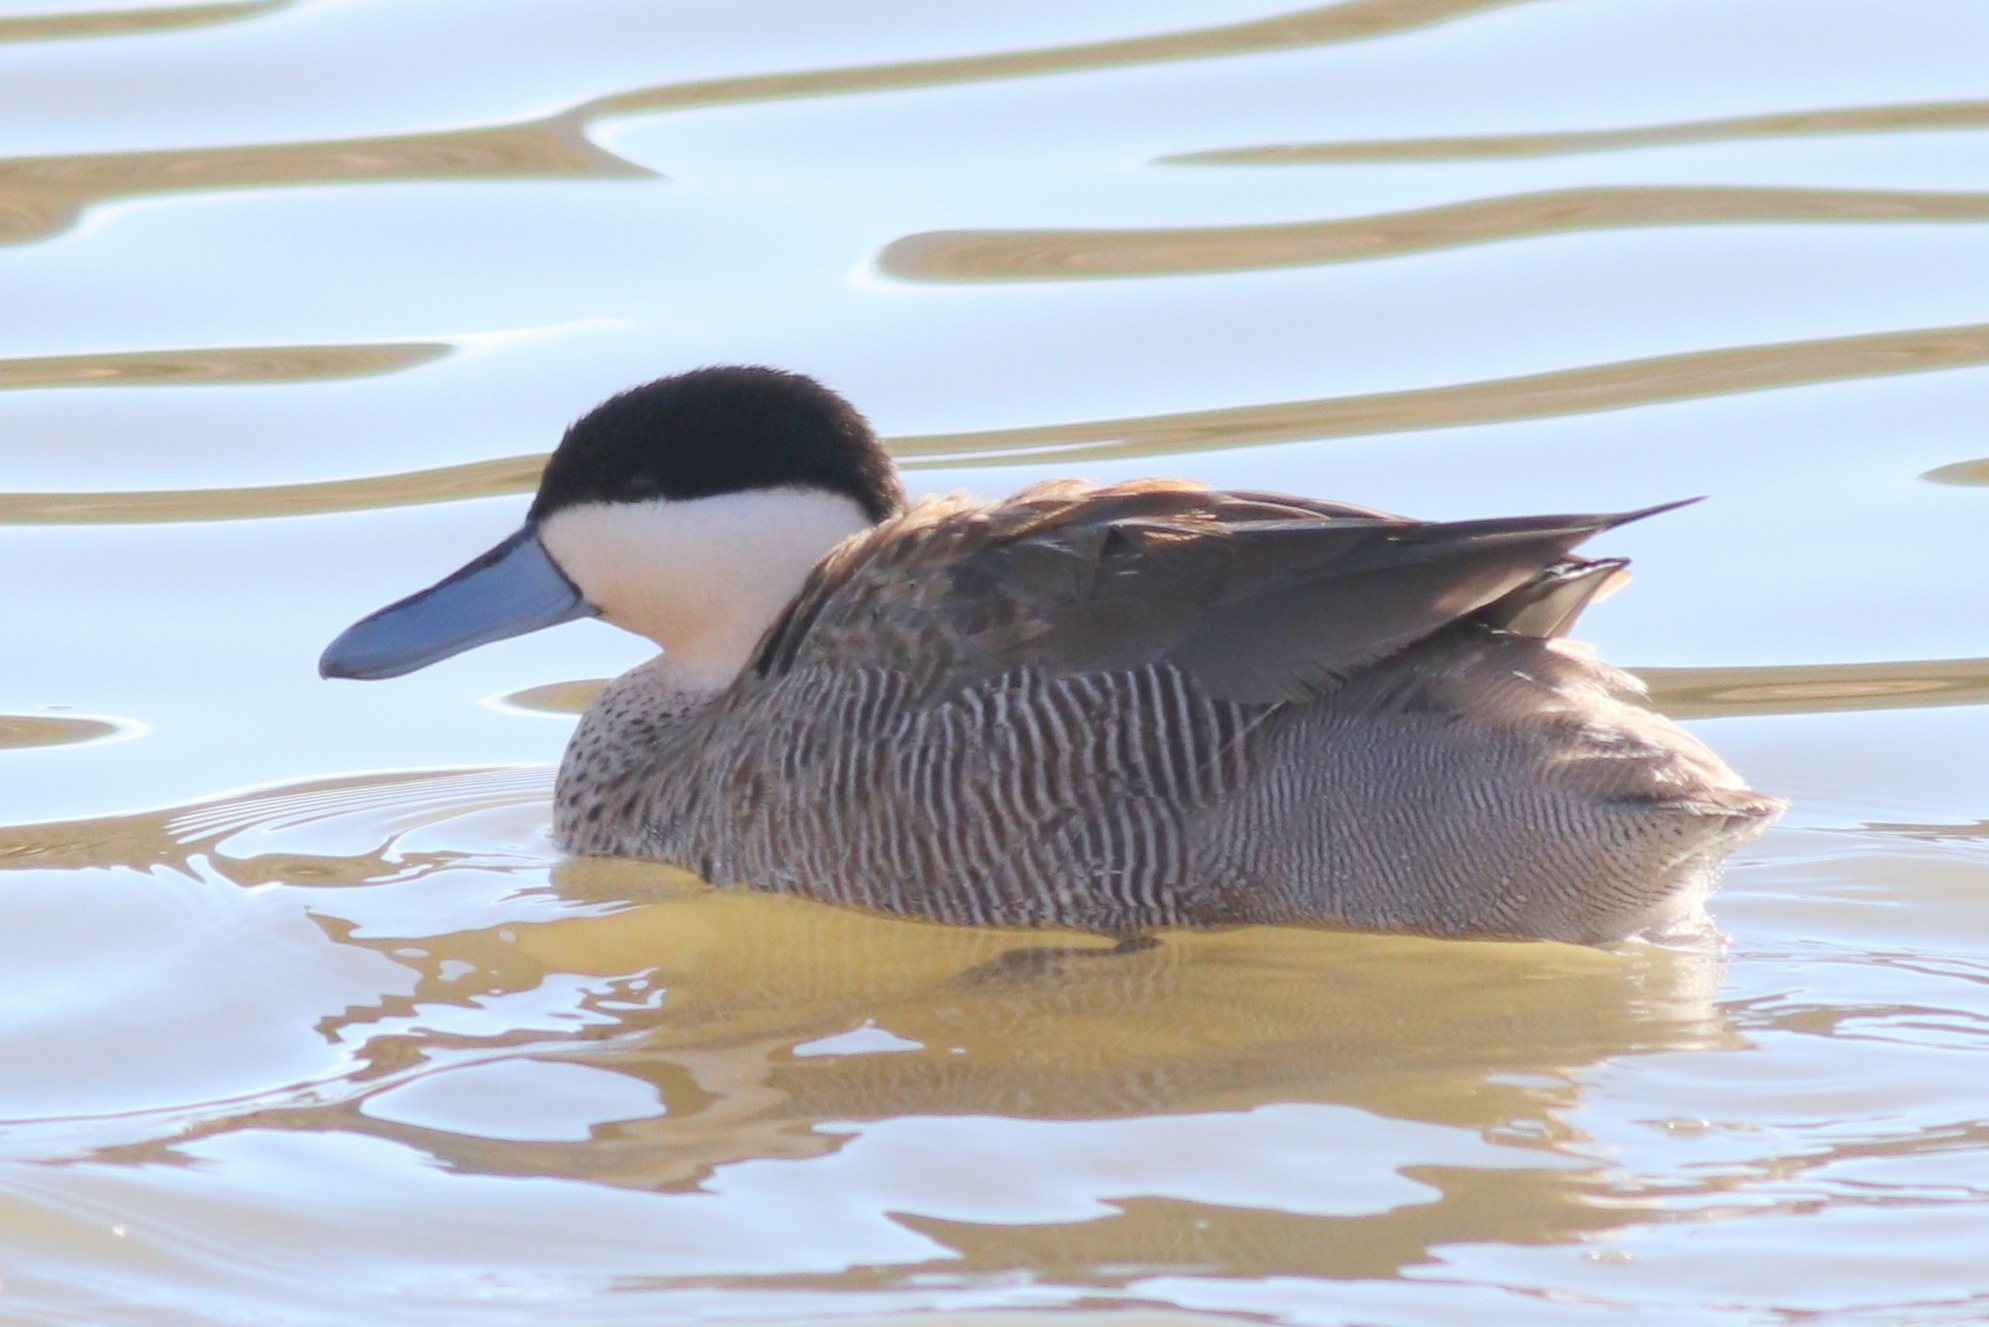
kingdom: Animalia
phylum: Chordata
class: Aves
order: Anseriformes
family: Anatidae
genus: Spatula
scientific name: Spatula puna
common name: Puna teal
